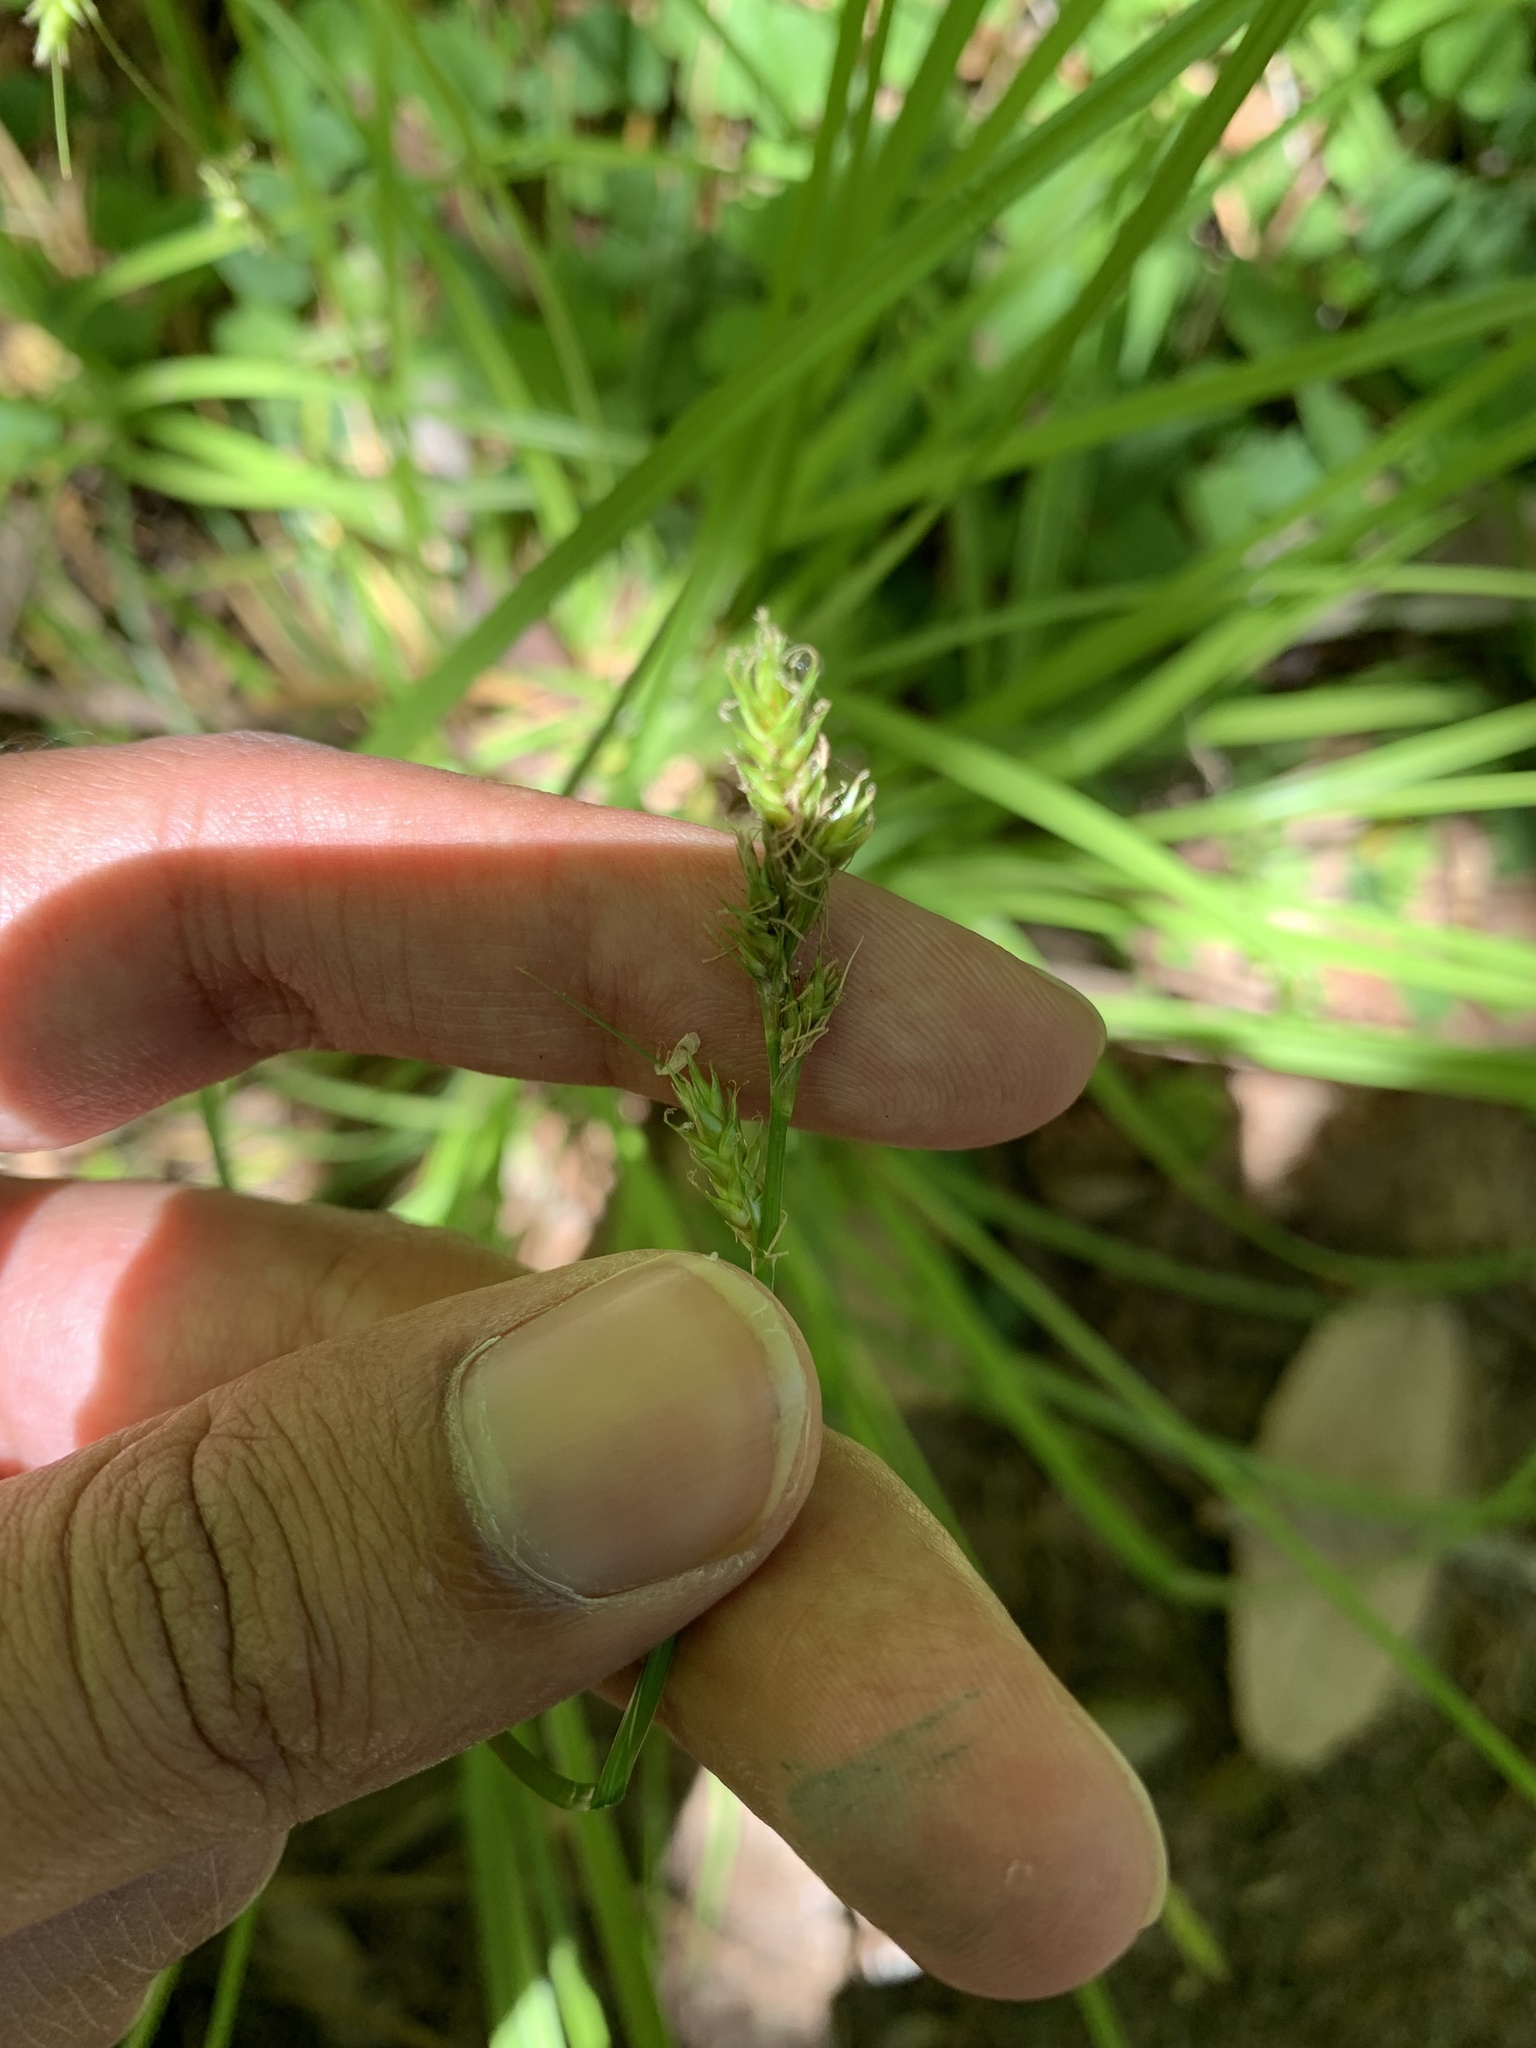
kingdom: Plantae
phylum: Tracheophyta
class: Liliopsida
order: Poales
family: Cyperaceae
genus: Carex
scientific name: Carex bolanderi
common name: Bolander's sedge
